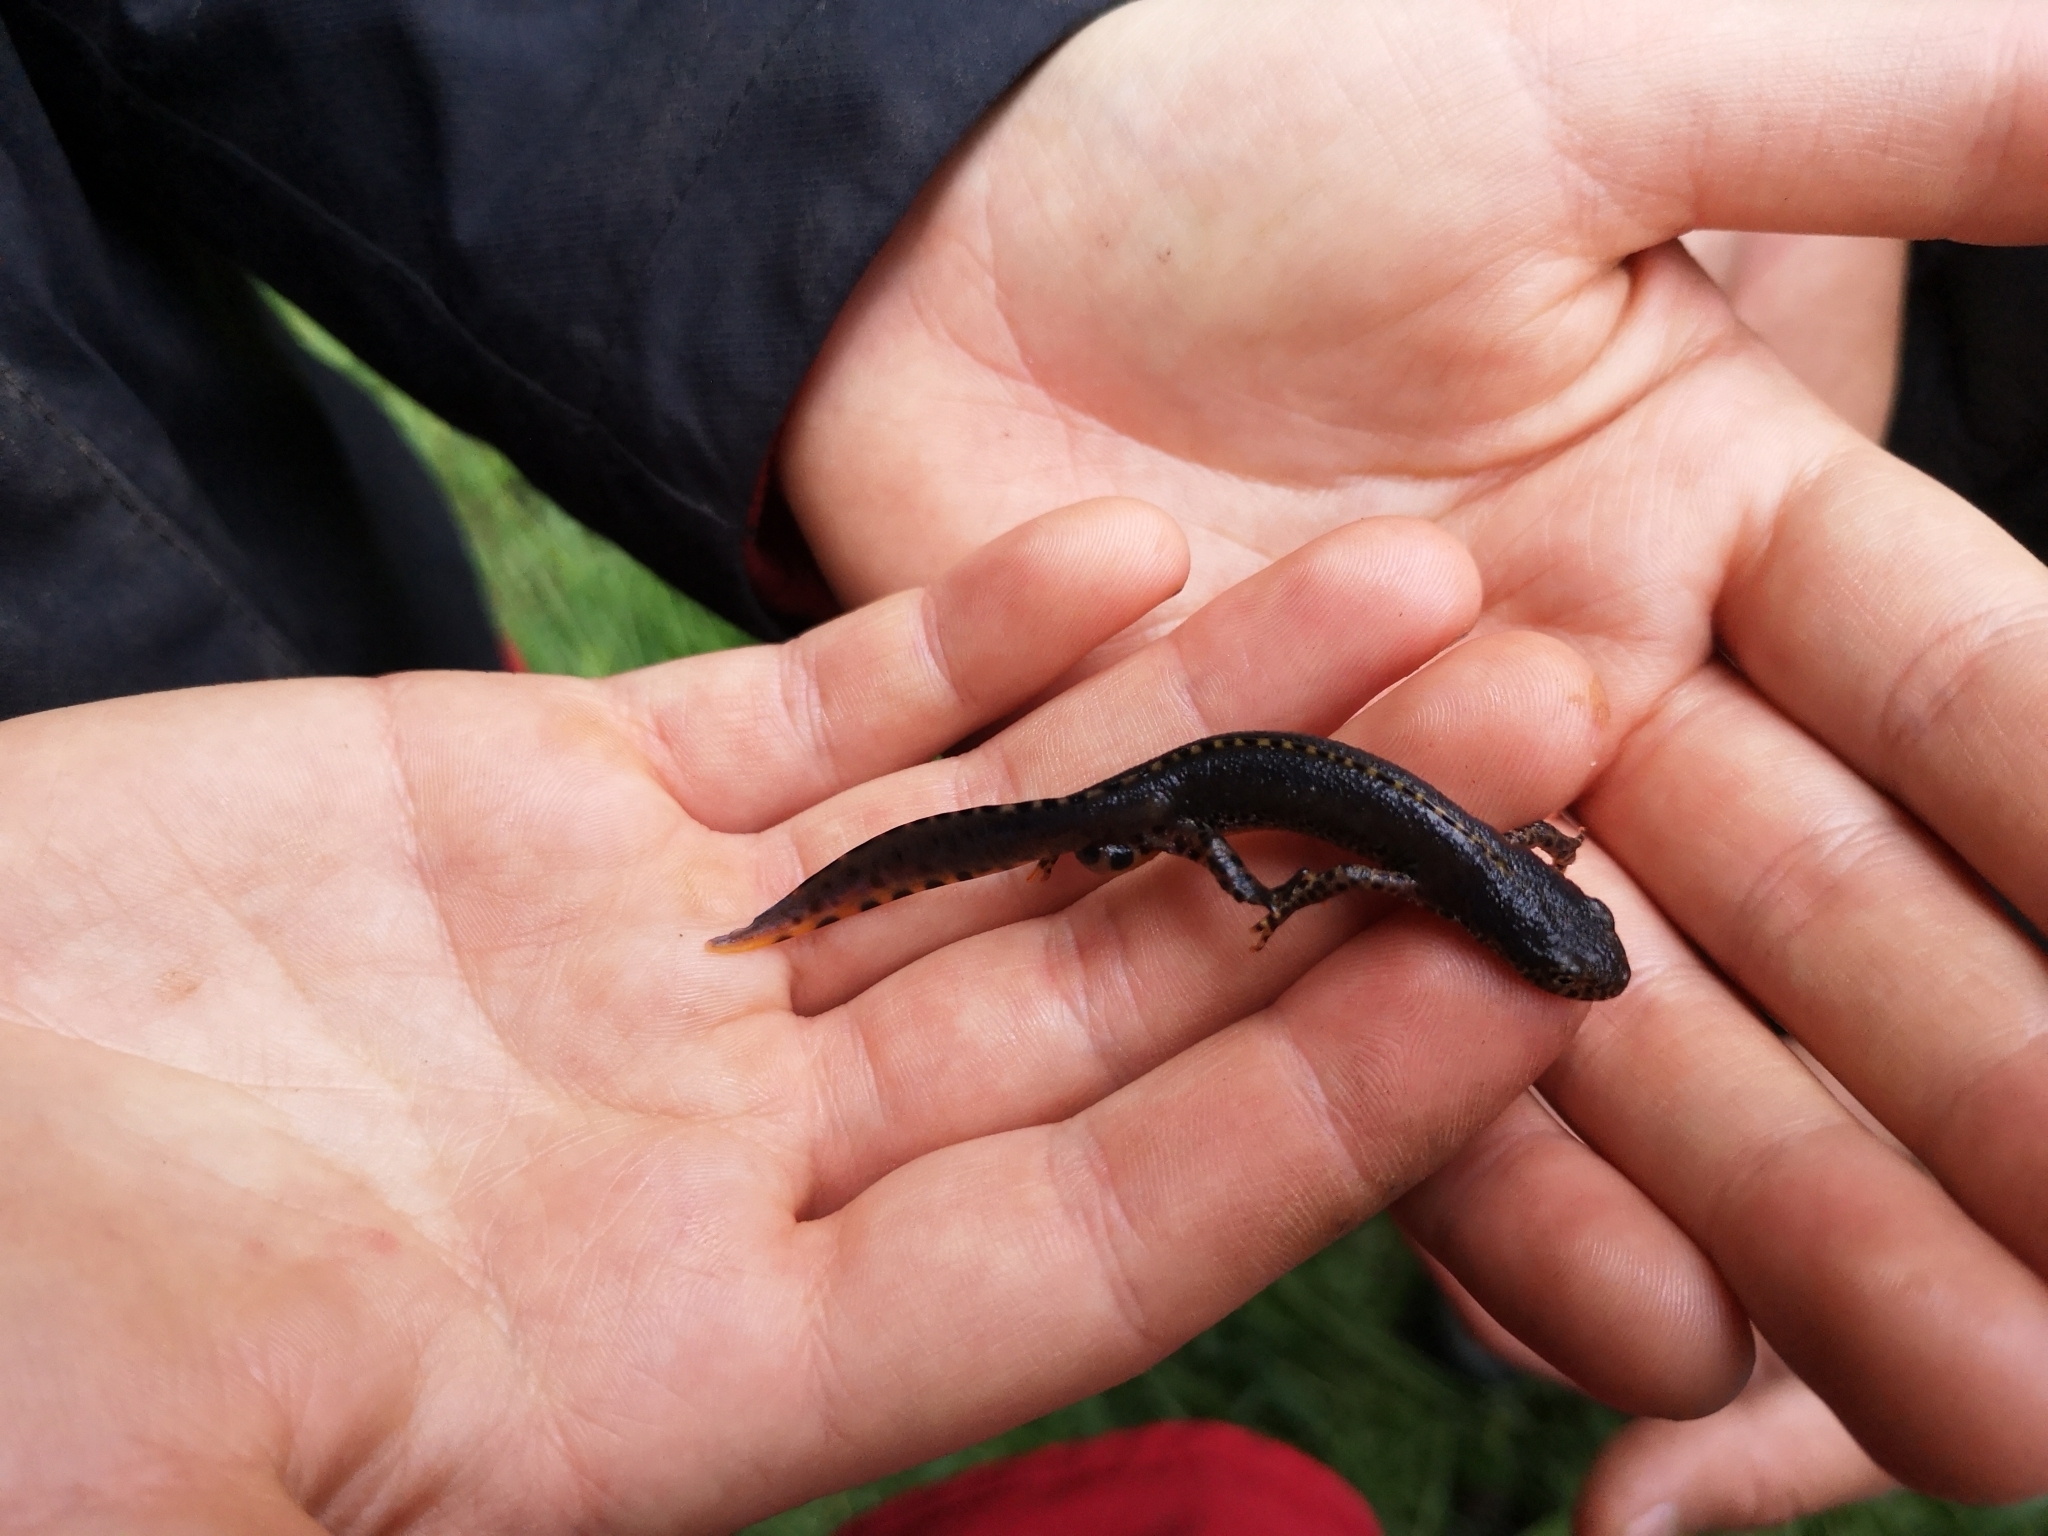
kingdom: Animalia
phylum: Chordata
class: Amphibia
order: Caudata
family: Salamandridae
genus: Ichthyosaura
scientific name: Ichthyosaura alpestris
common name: Alpine newt
